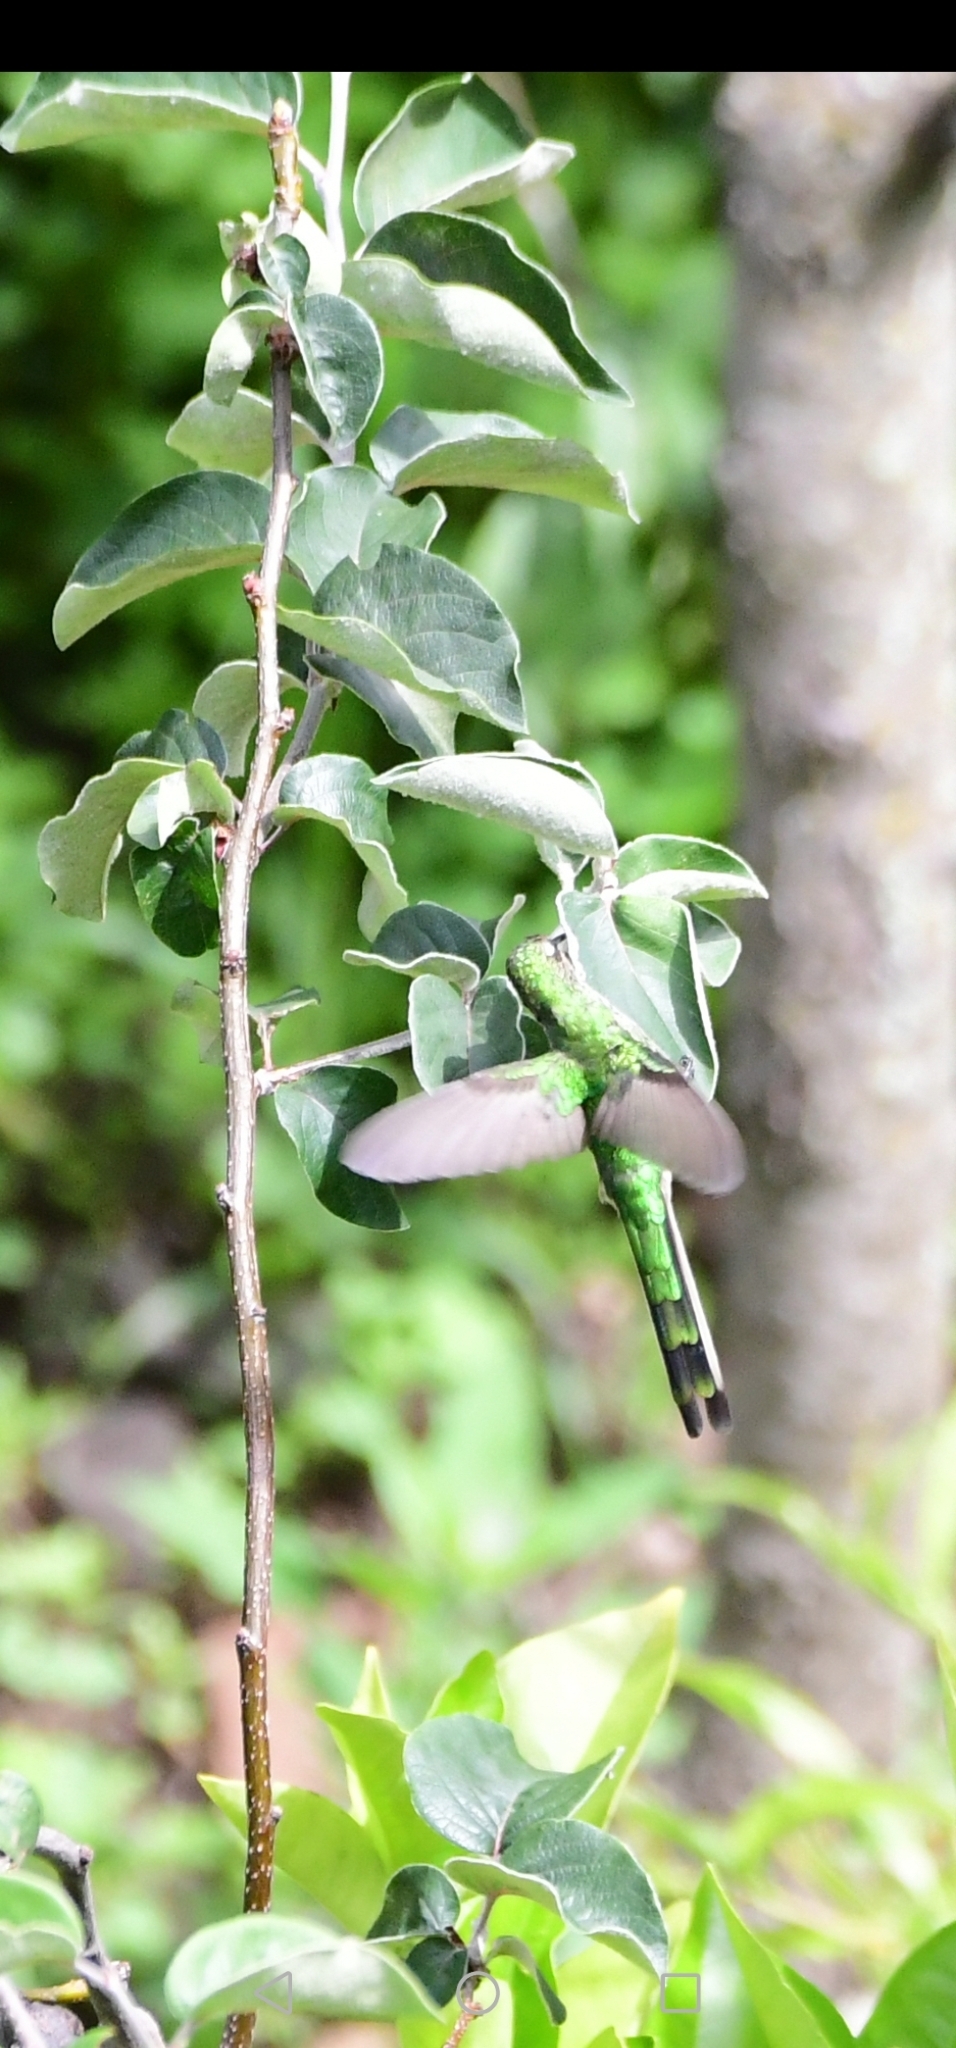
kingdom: Animalia
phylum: Chordata
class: Aves
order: Apodiformes
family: Trochilidae
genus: Lesbia
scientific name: Lesbia nuna
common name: Green-tailed trainbearer
